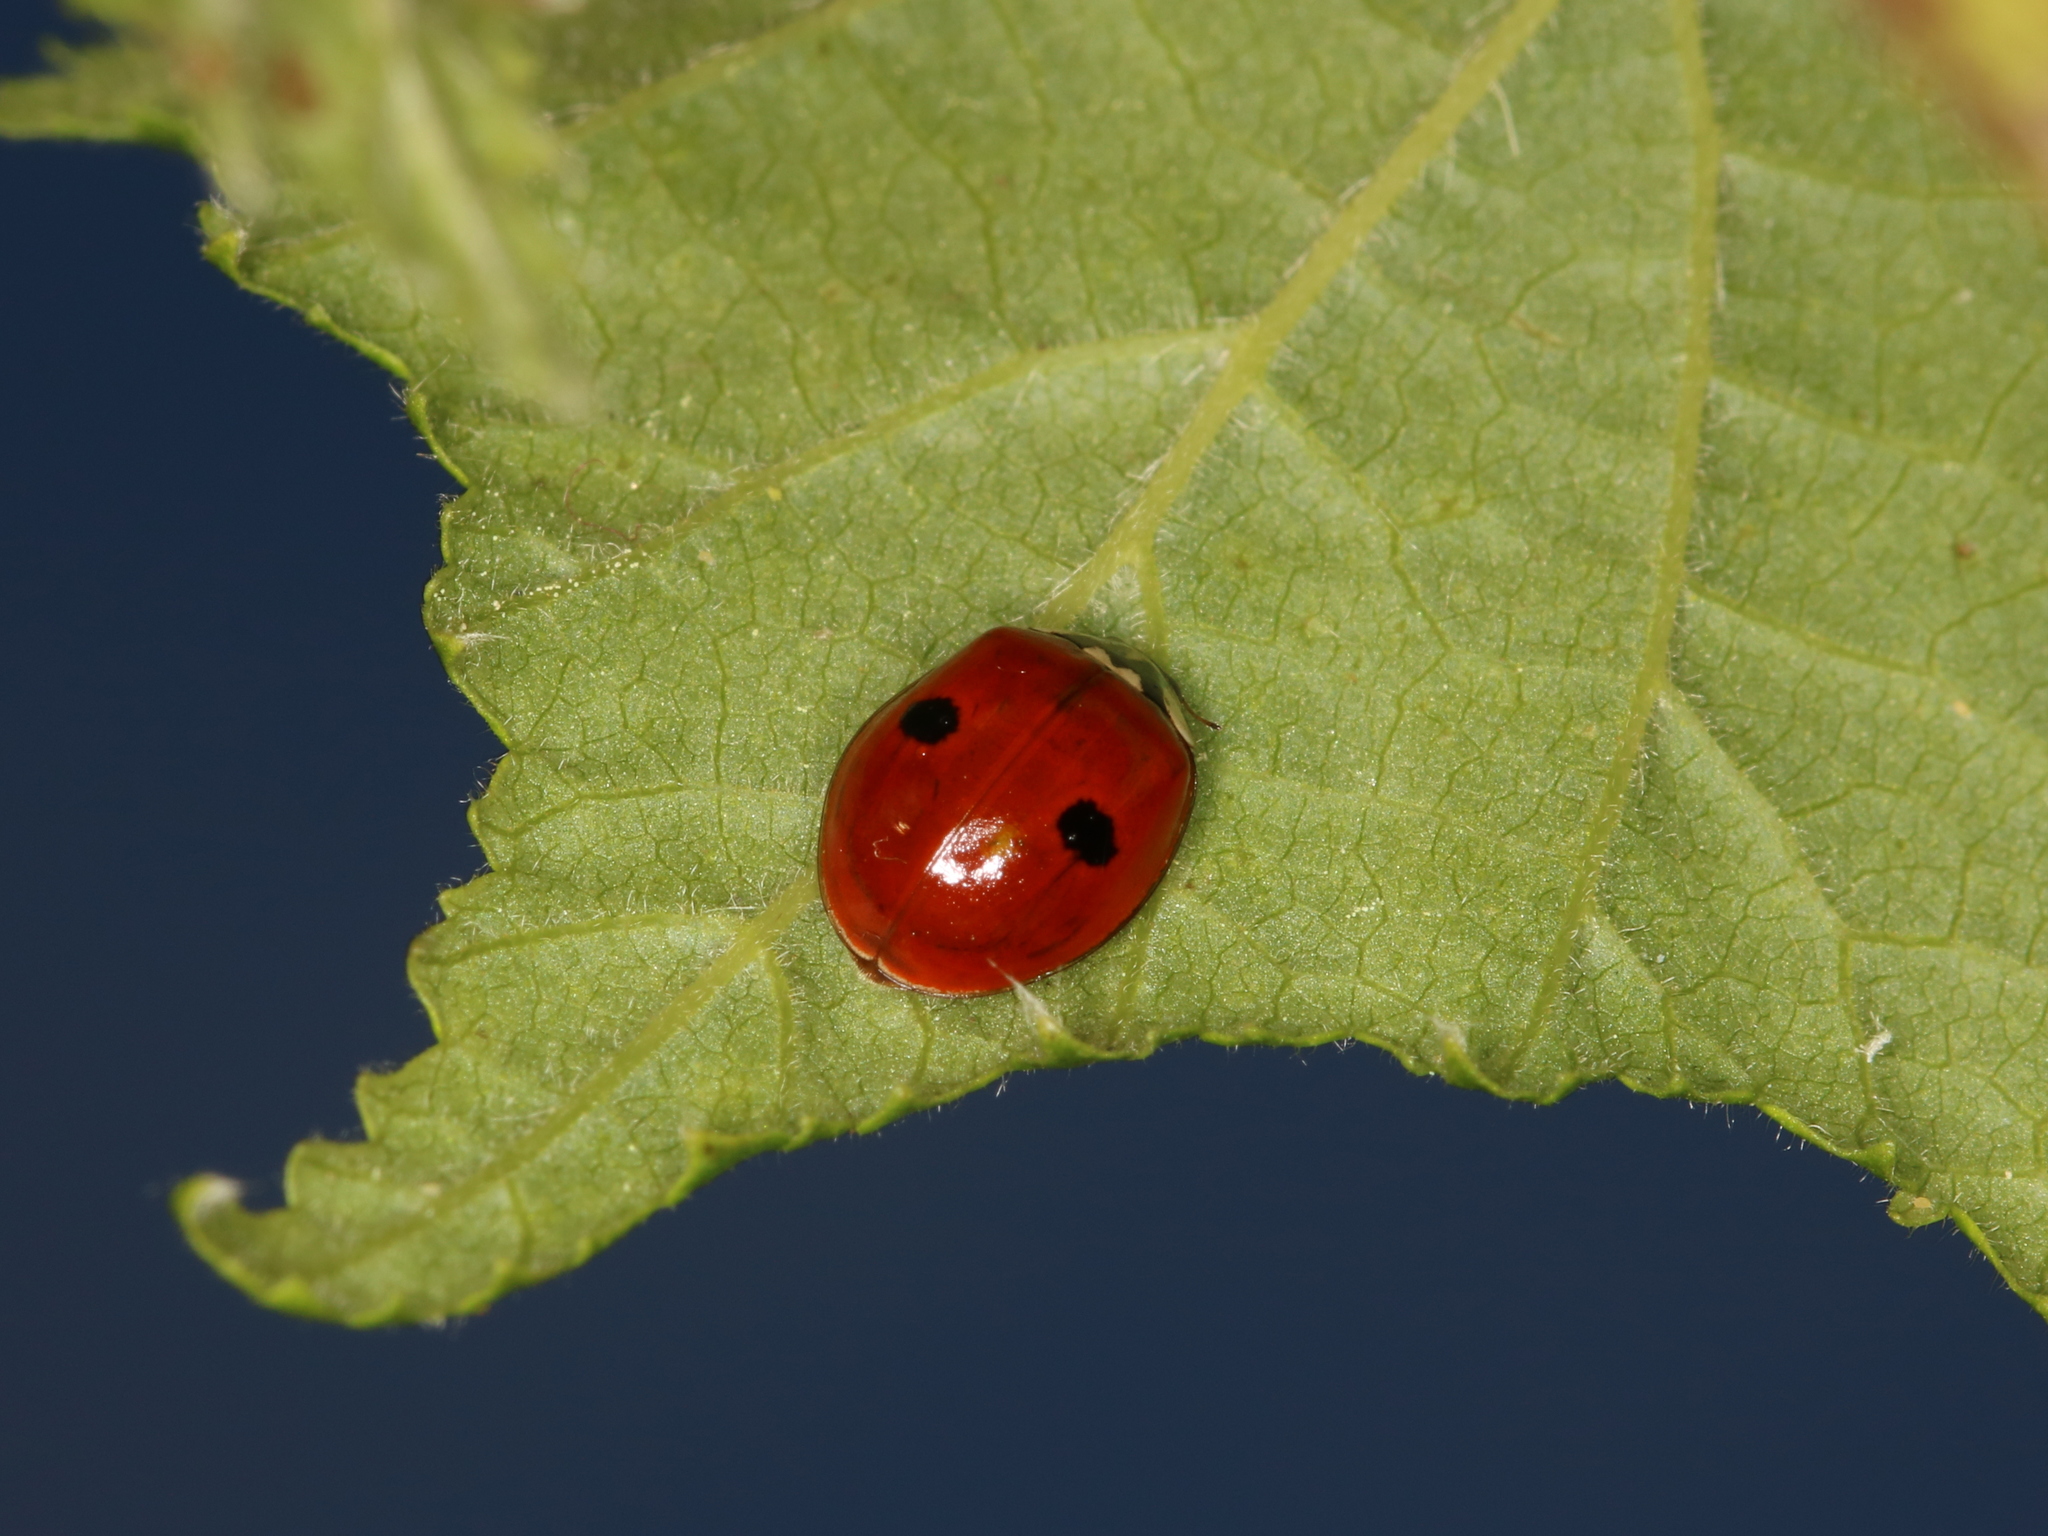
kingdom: Animalia
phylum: Arthropoda
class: Insecta
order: Coleoptera
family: Coccinellidae
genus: Adalia
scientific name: Adalia bipunctata
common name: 2-spot ladybird
